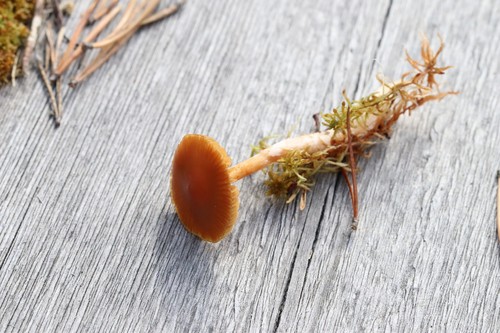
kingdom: Fungi
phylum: Basidiomycota
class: Agaricomycetes
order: Agaricales
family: Cortinariaceae
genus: Cortinarius
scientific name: Cortinarius biformis
